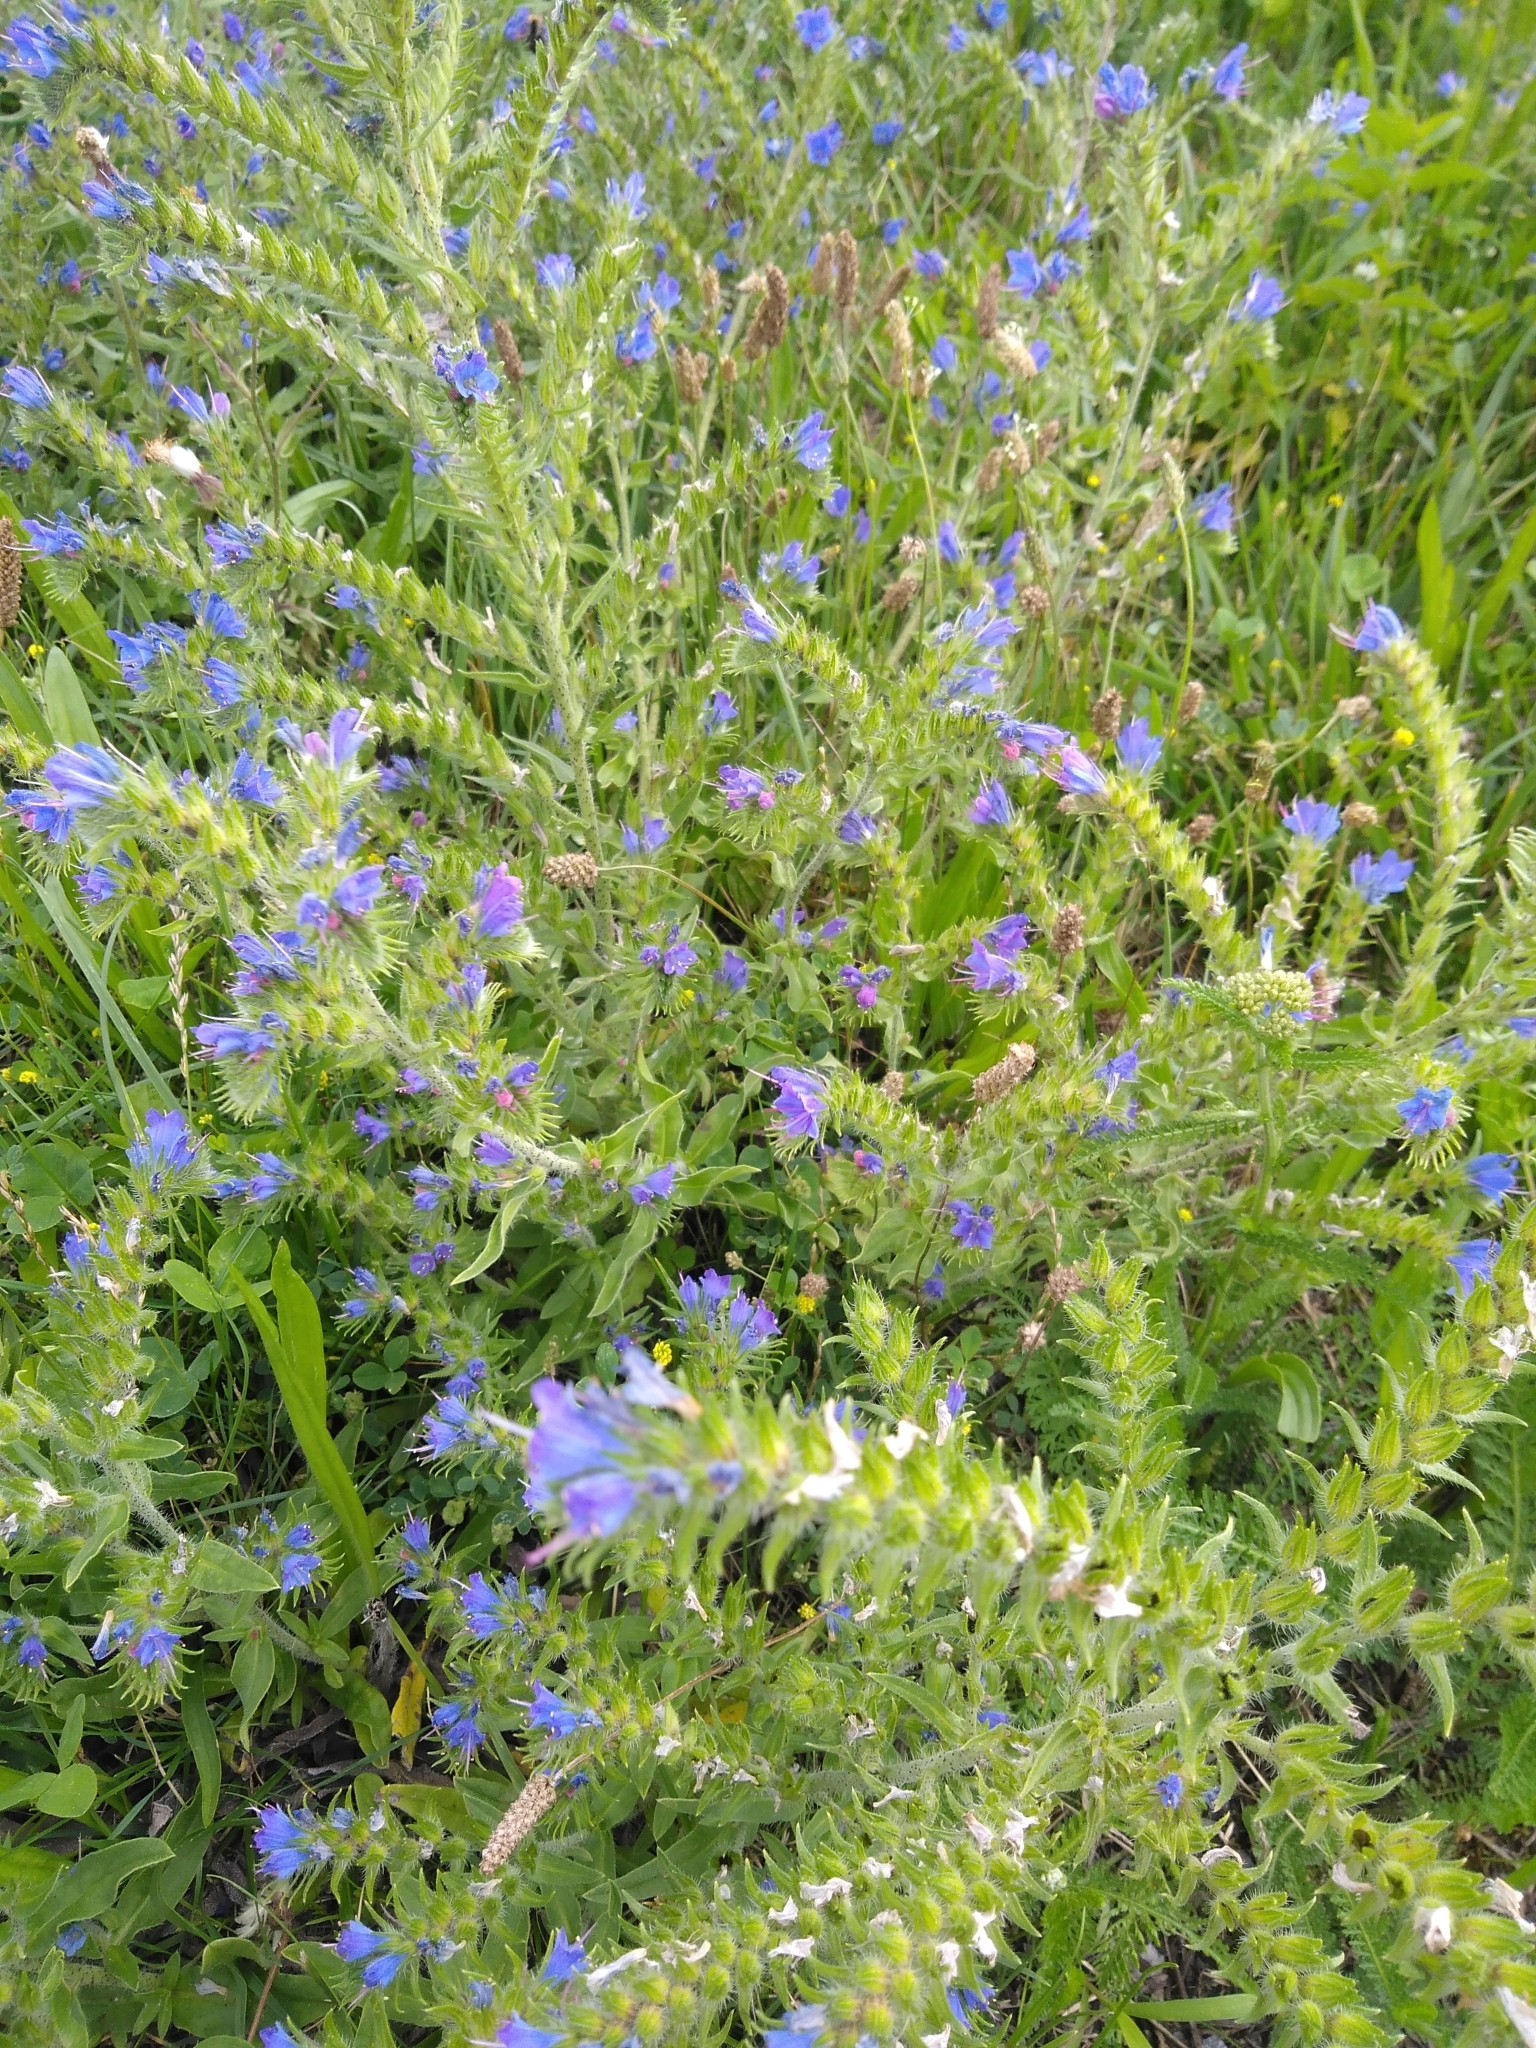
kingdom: Plantae
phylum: Tracheophyta
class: Magnoliopsida
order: Boraginales
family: Boraginaceae
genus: Echium
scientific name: Echium vulgare
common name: Common viper's bugloss
